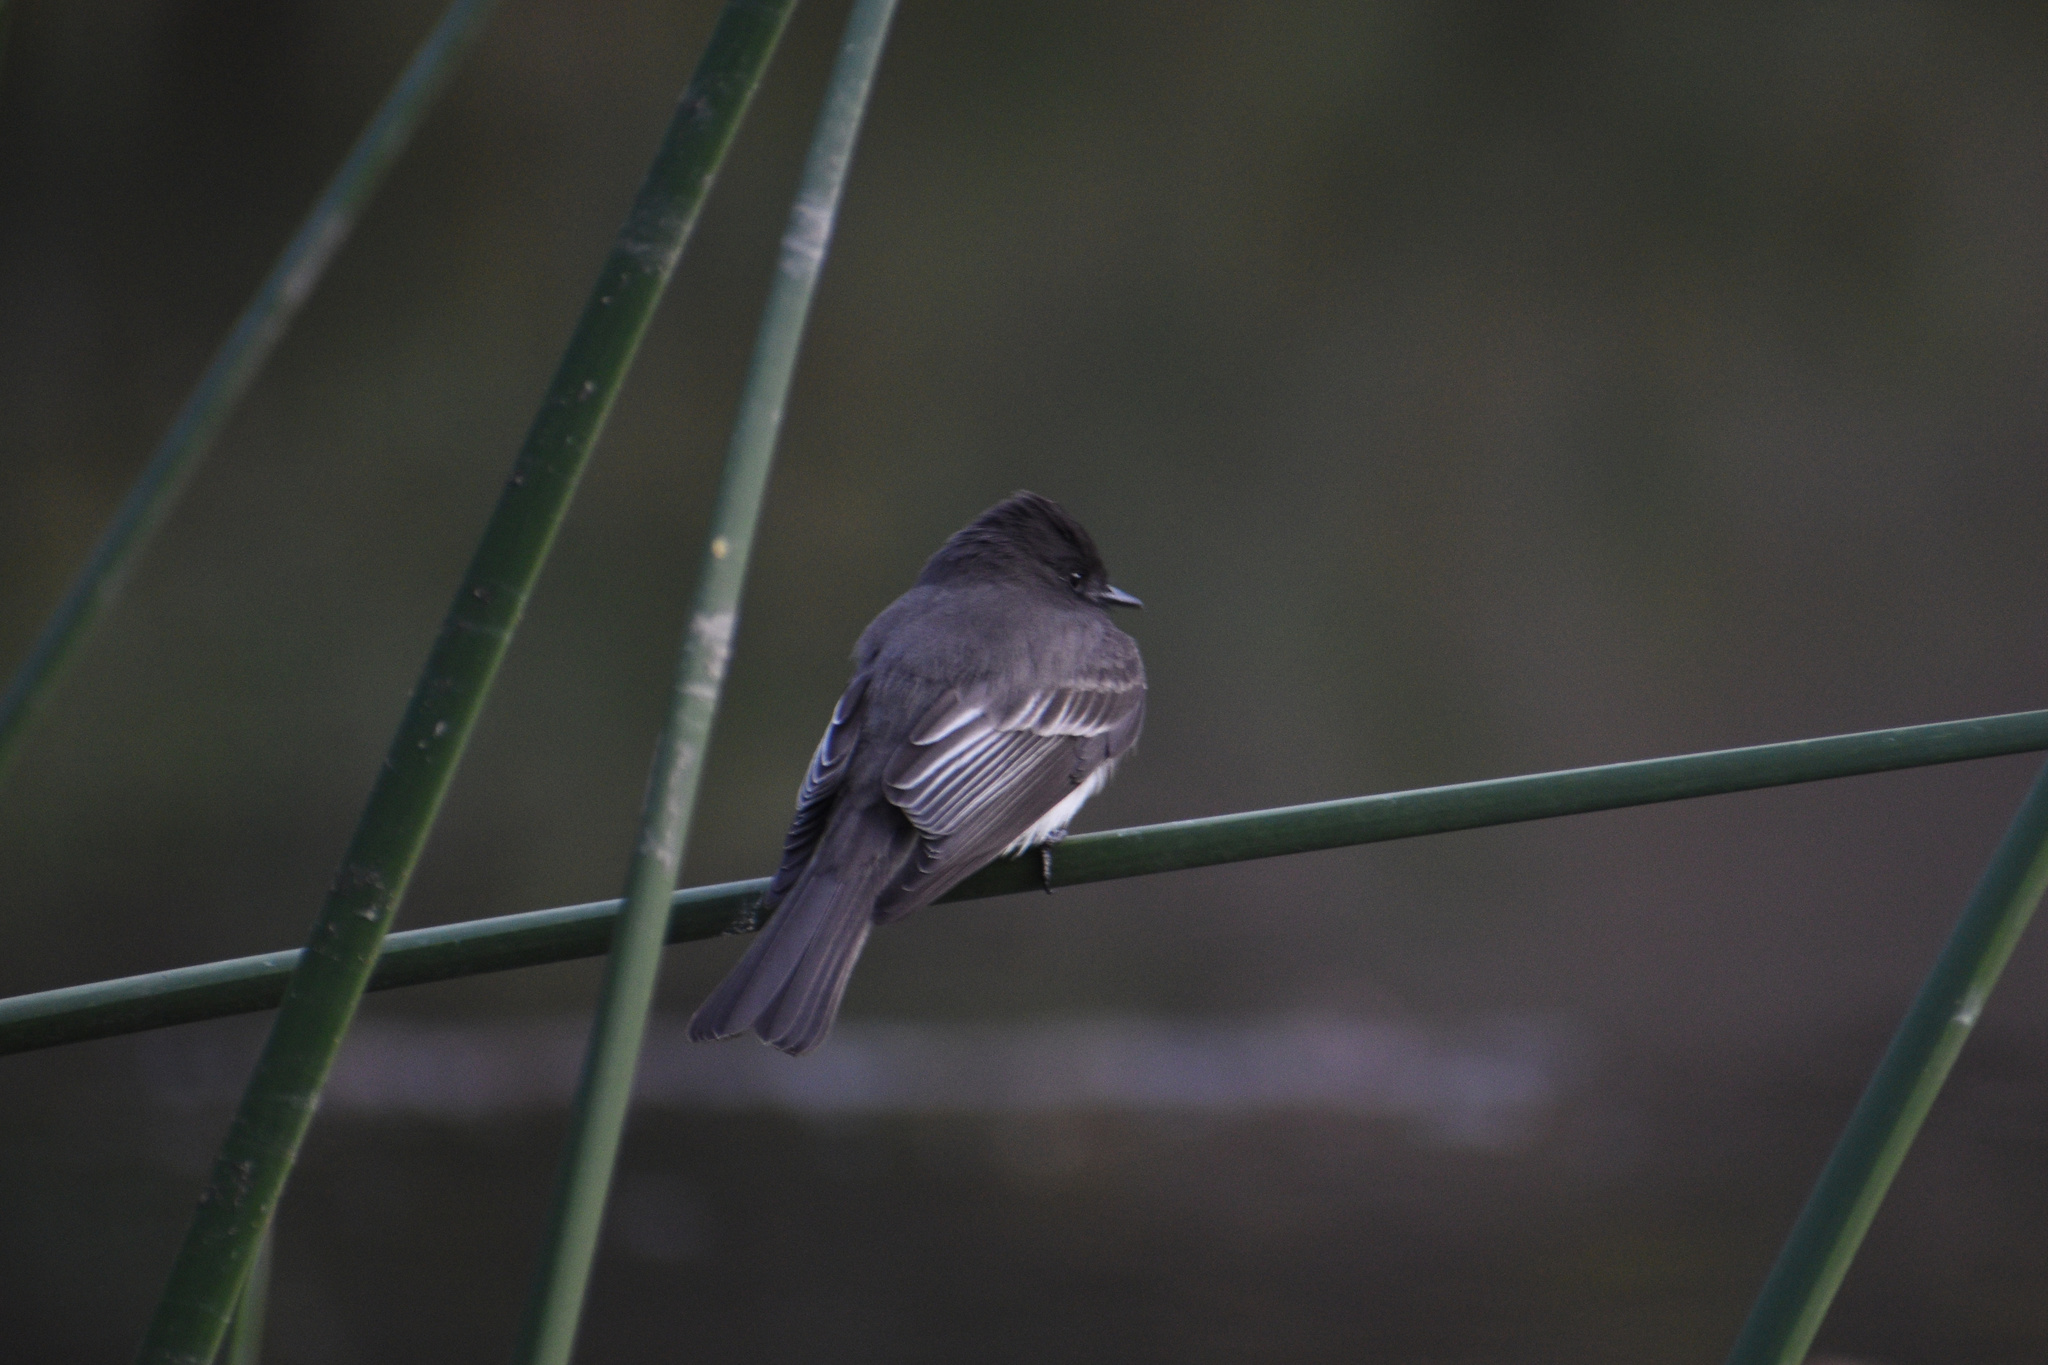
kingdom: Animalia
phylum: Chordata
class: Aves
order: Passeriformes
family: Tyrannidae
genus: Sayornis
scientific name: Sayornis nigricans
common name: Black phoebe
